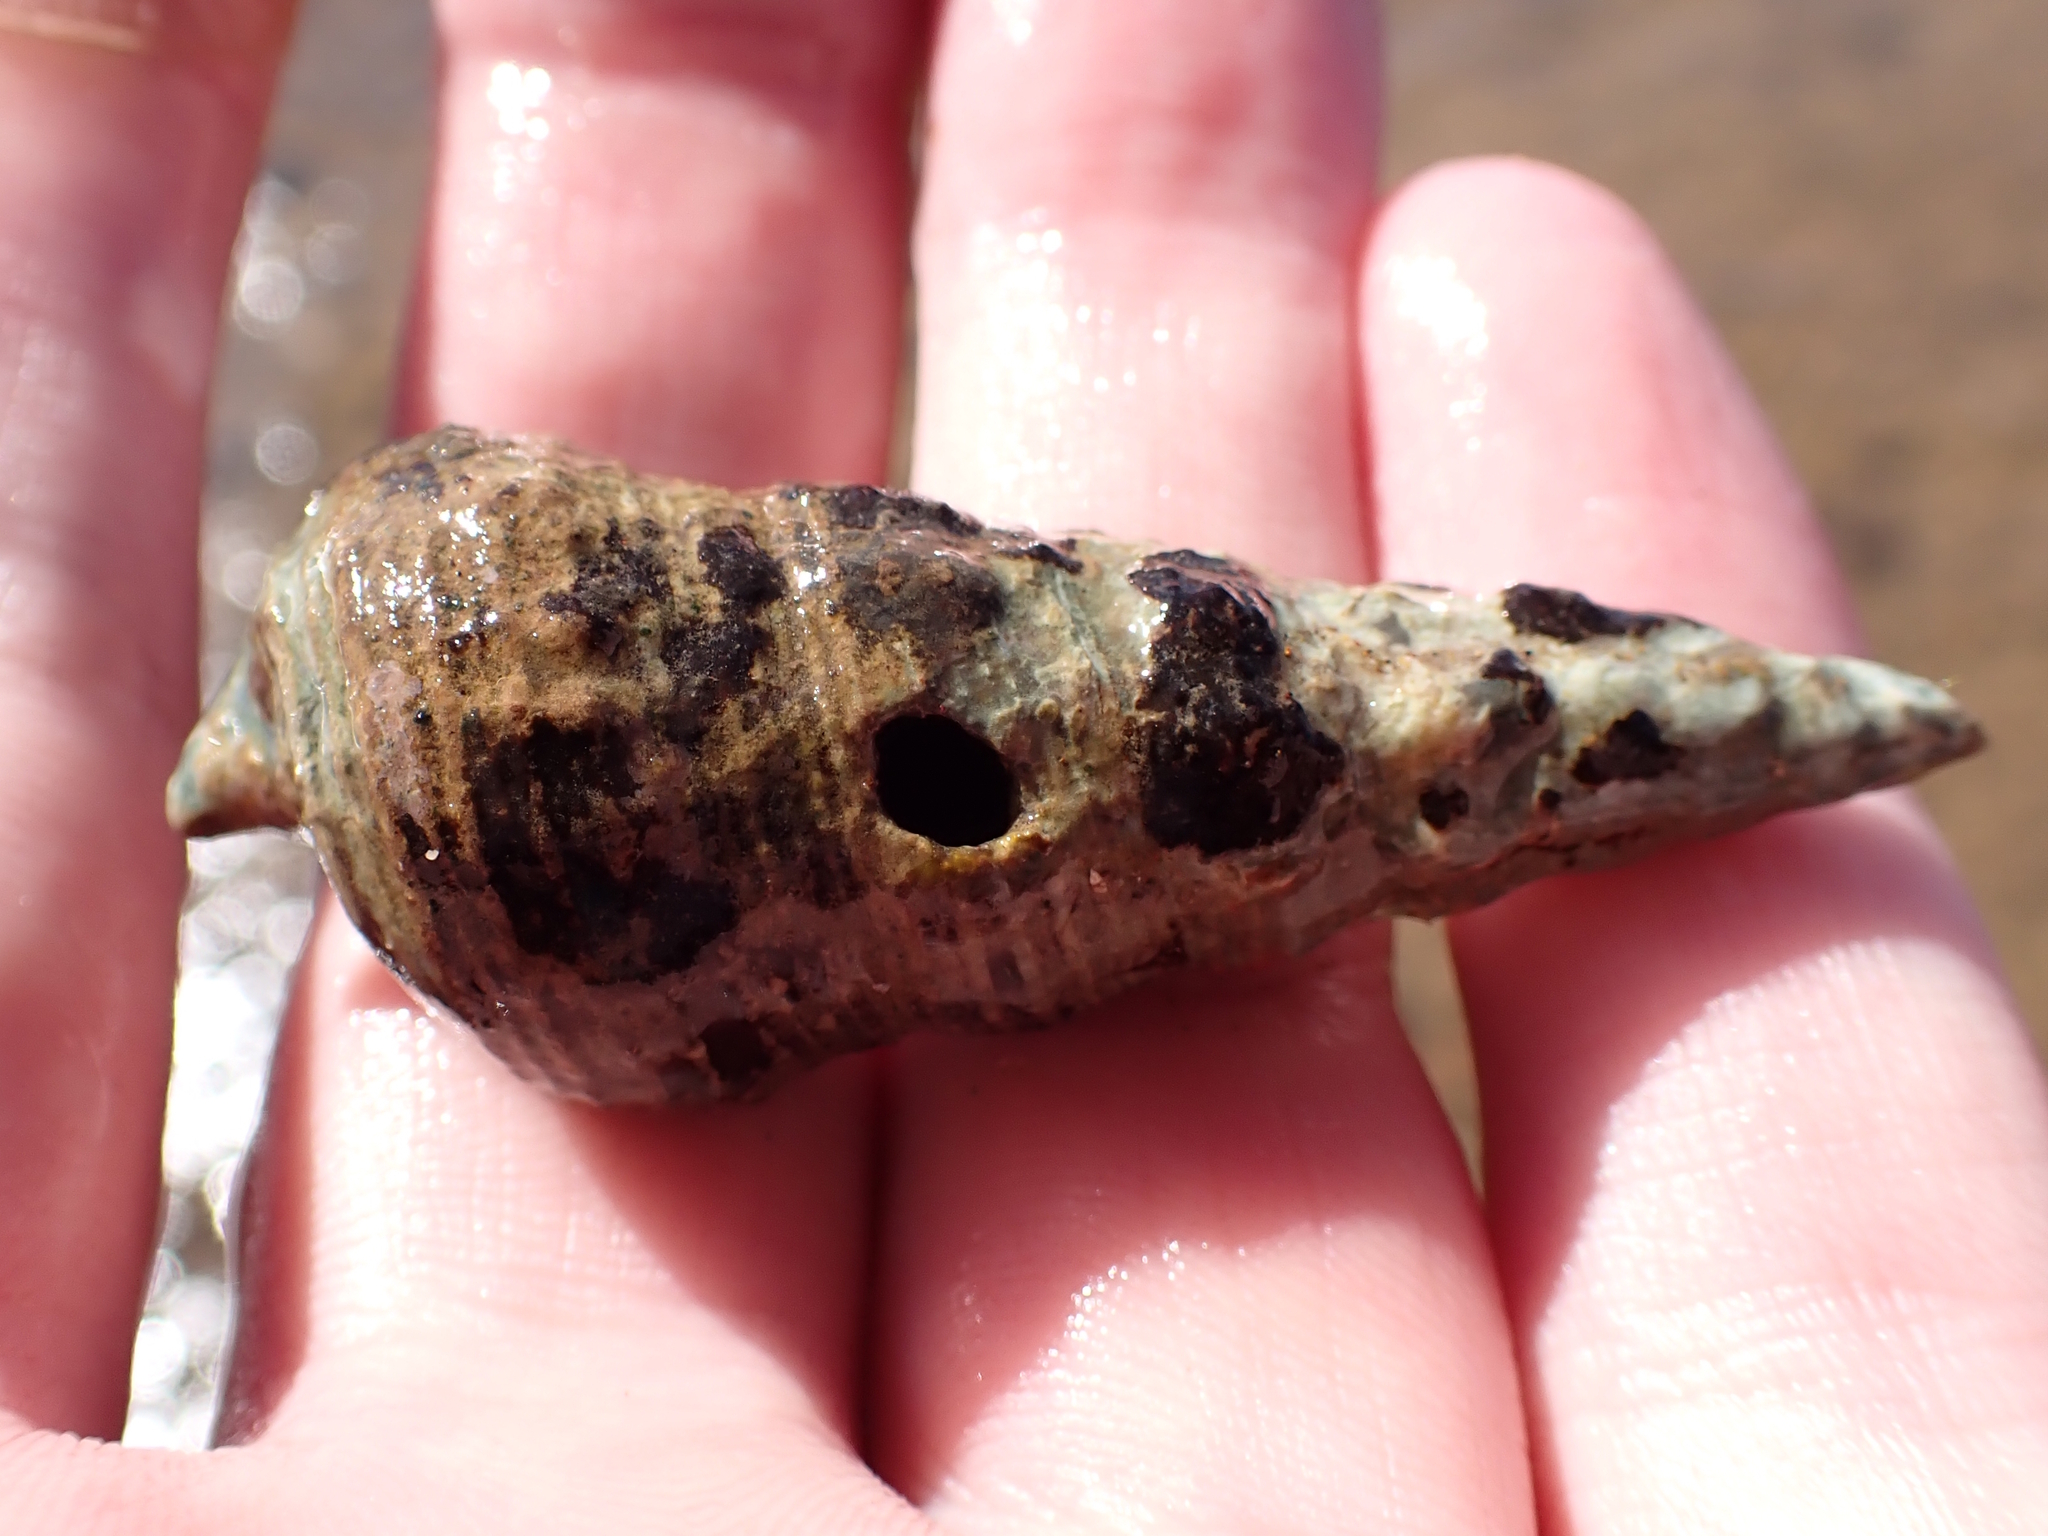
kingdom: Animalia
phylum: Mollusca
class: Gastropoda
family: Batillariidae
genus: Pyrazus
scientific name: Pyrazus ebeninus
